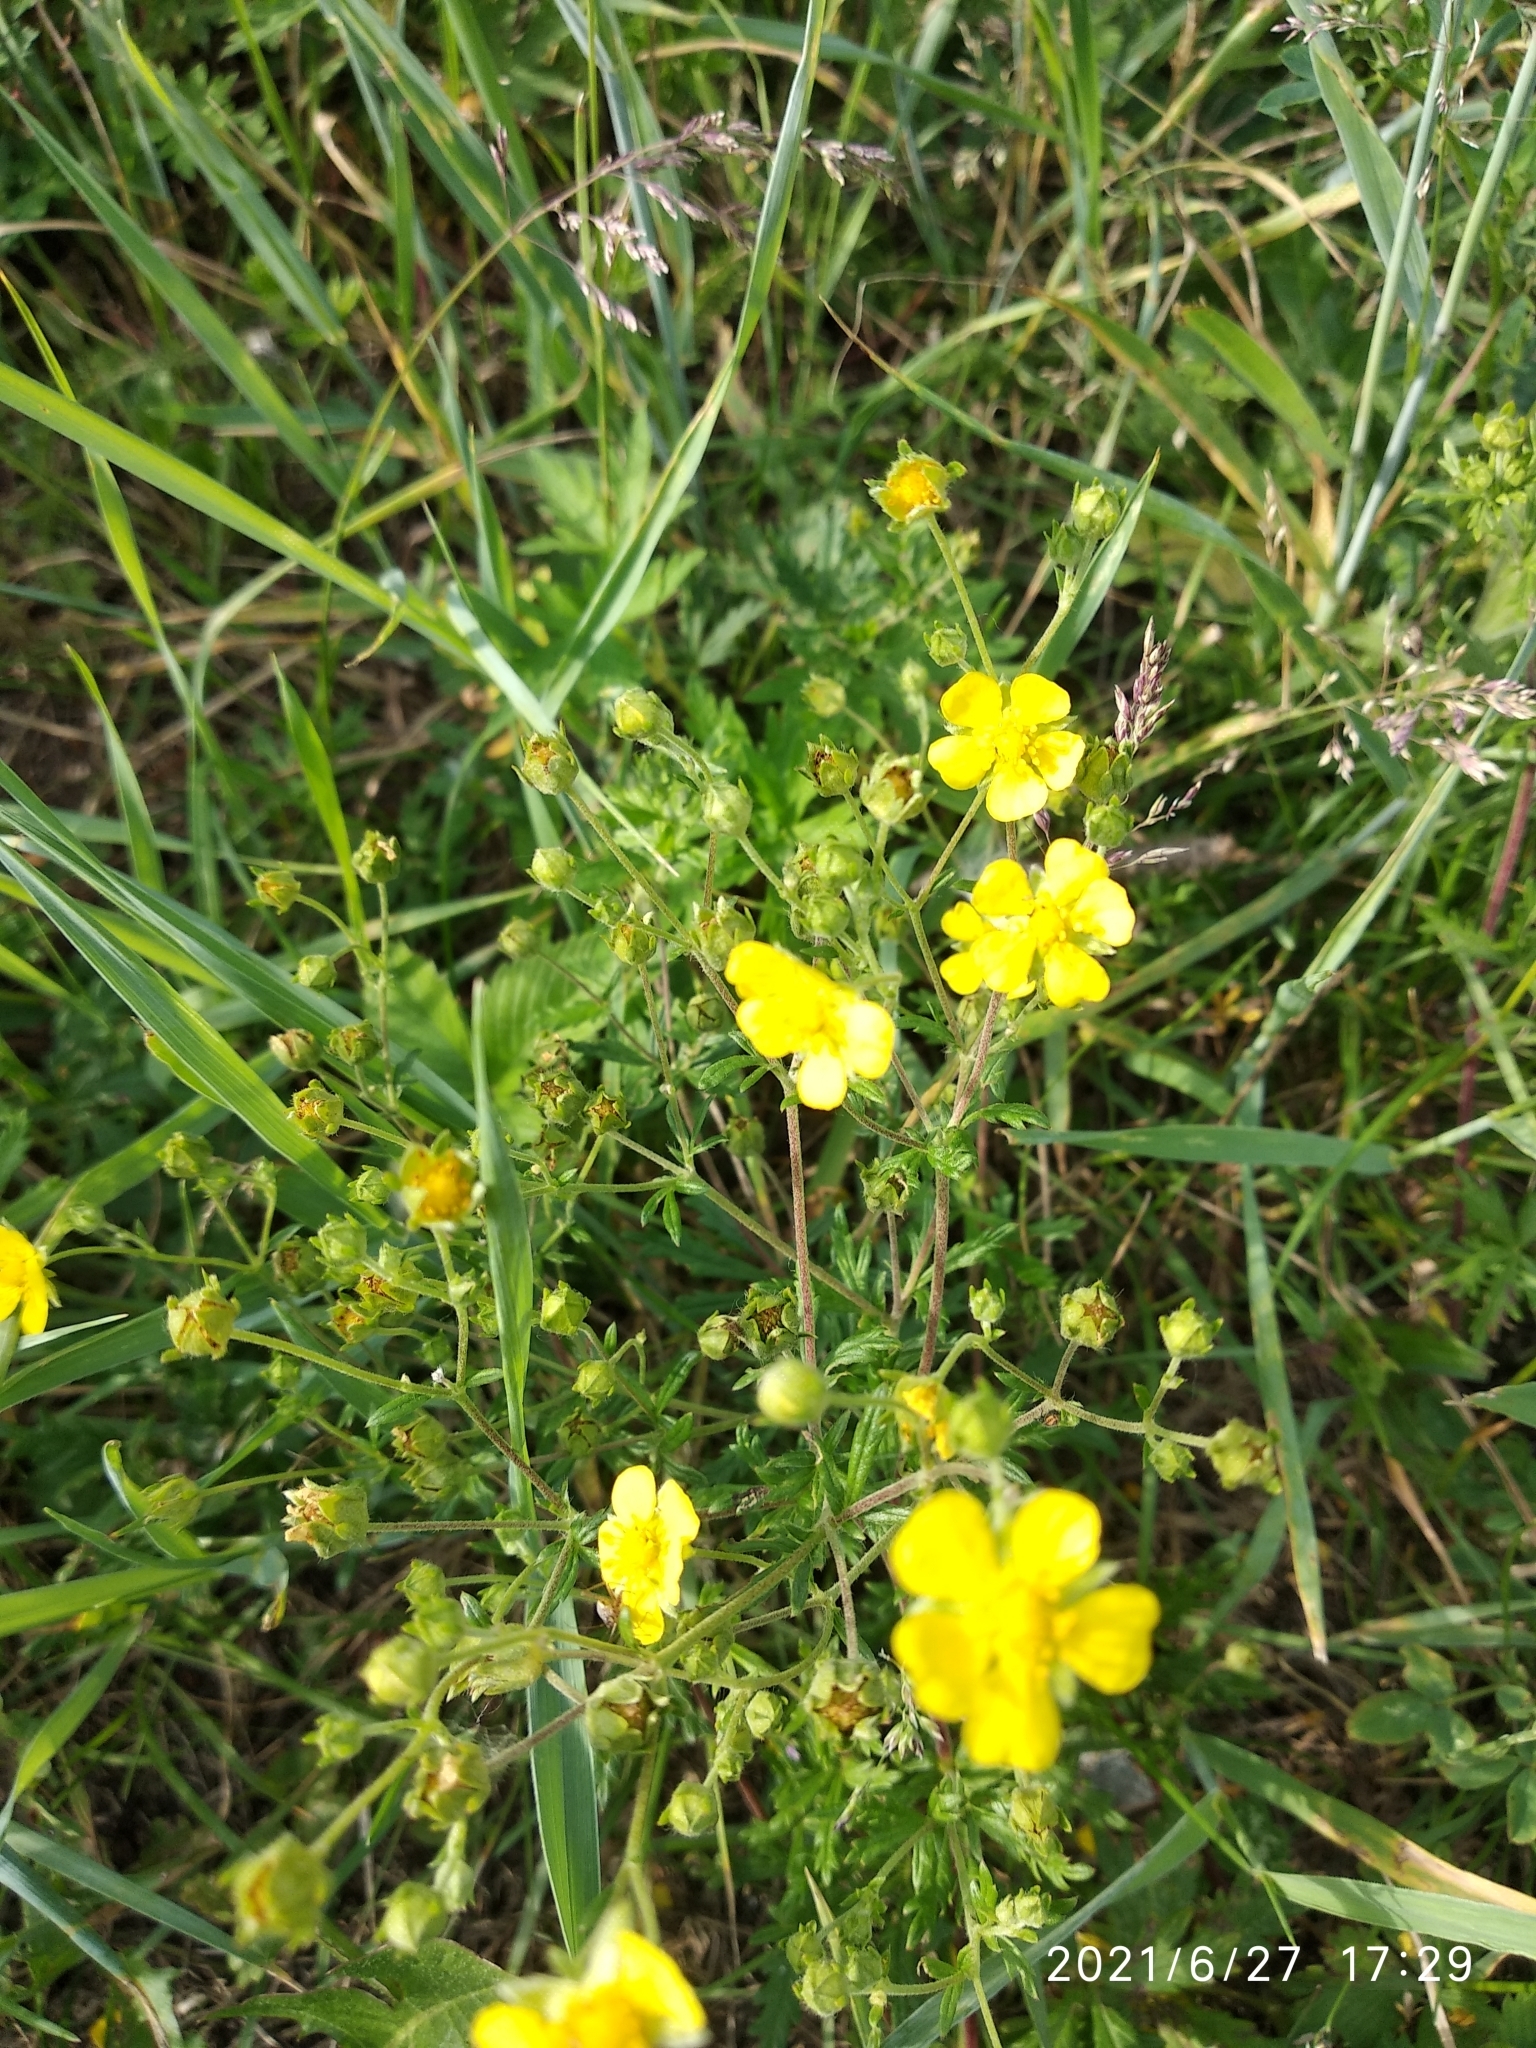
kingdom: Plantae
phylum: Tracheophyta
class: Magnoliopsida
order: Rosales
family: Rosaceae
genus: Potentilla
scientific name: Potentilla argentea
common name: Hoary cinquefoil
